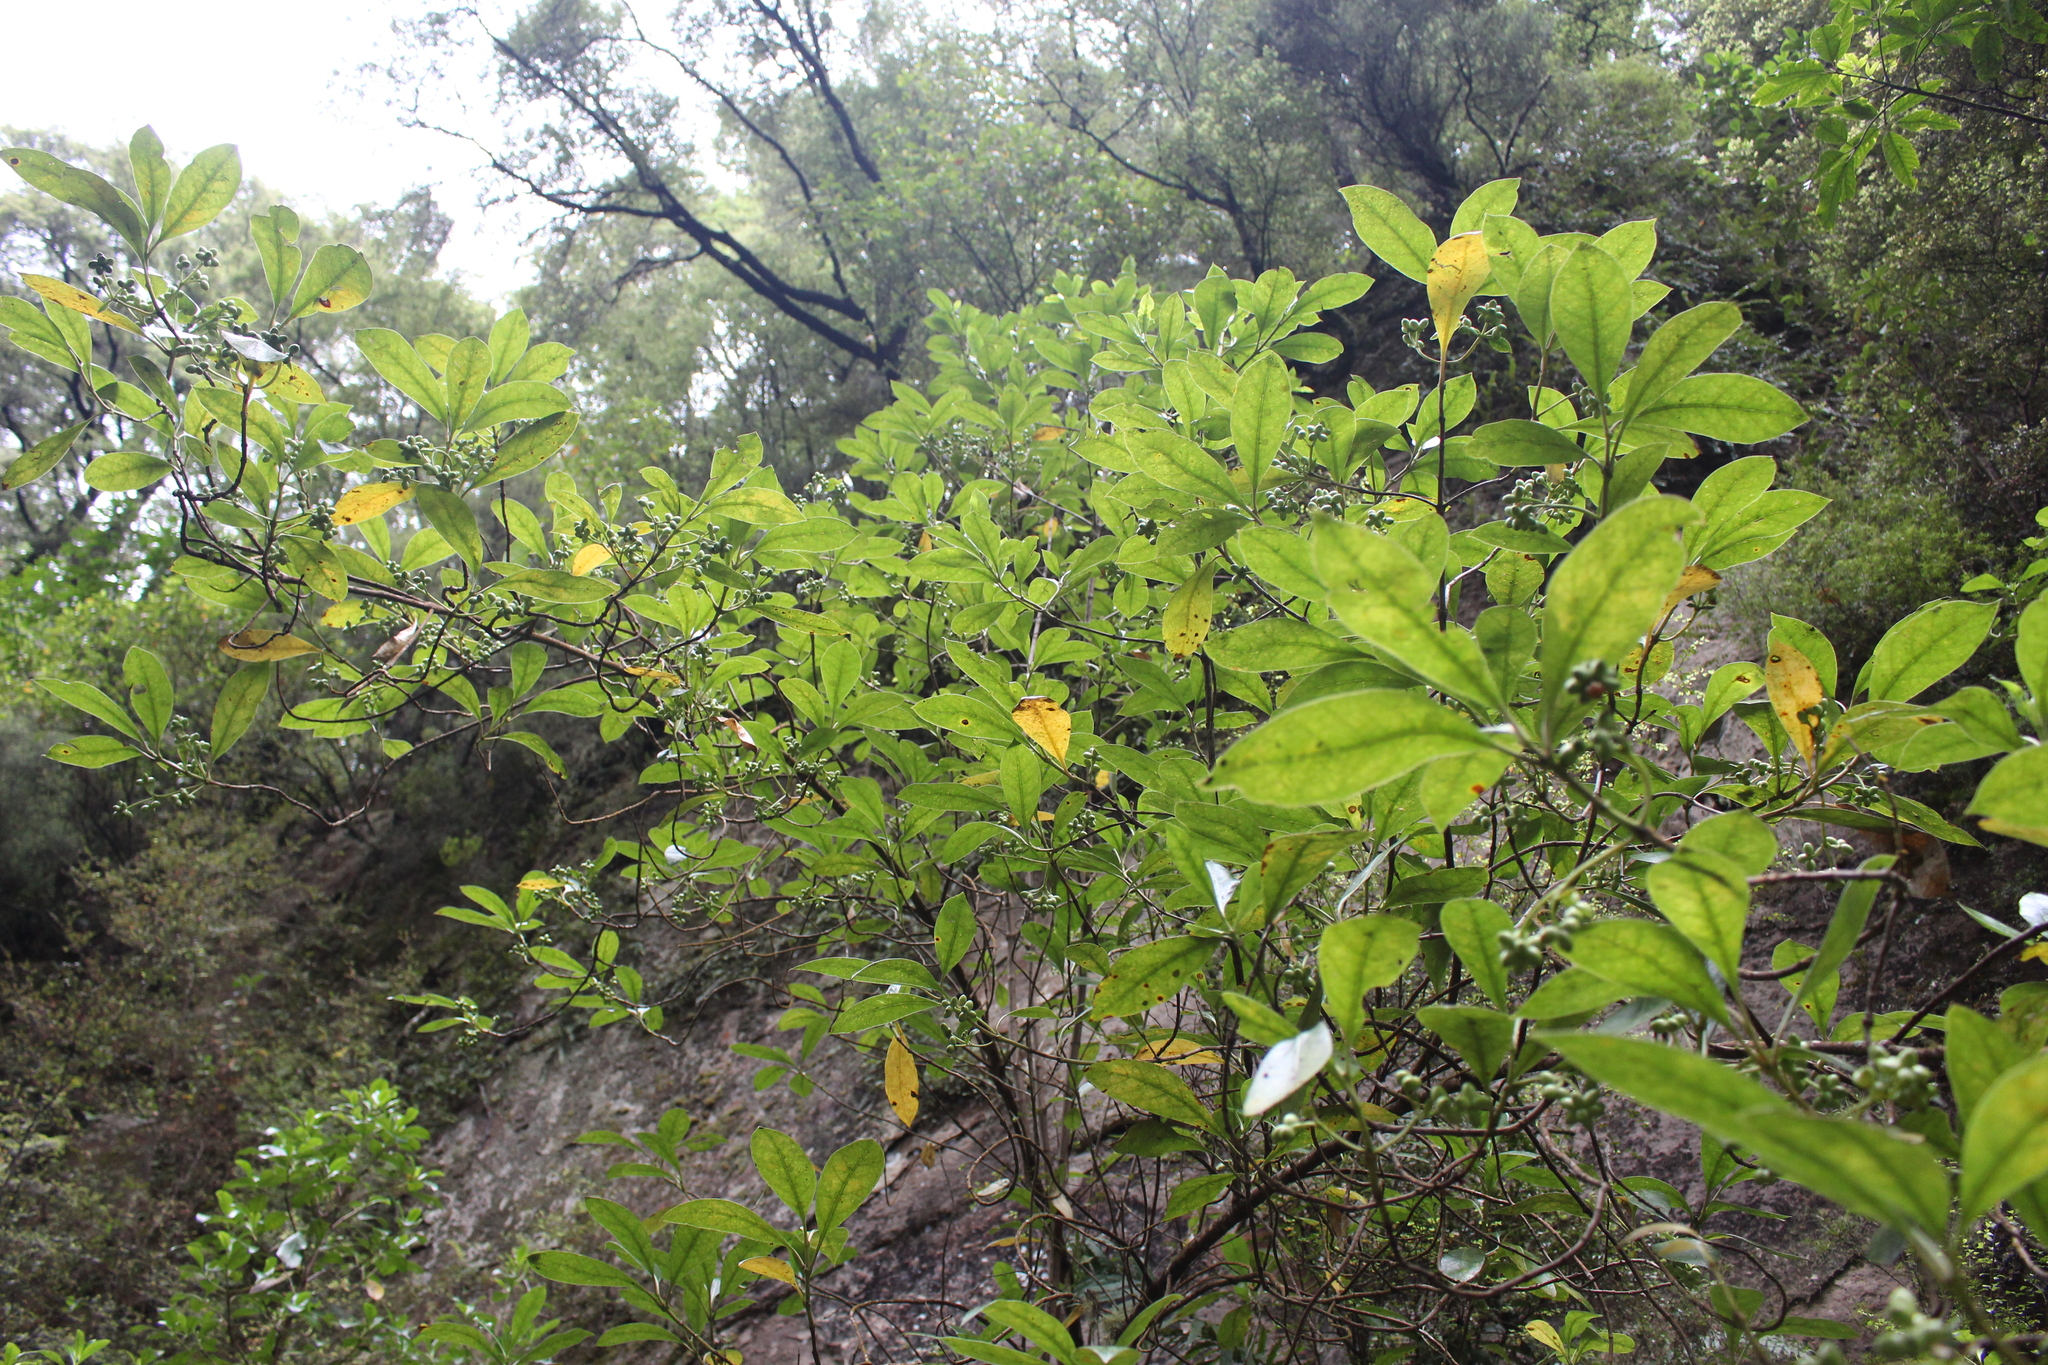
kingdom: Plantae
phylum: Tracheophyta
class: Magnoliopsida
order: Gentianales
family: Rubiaceae
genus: Coprosma
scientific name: Coprosma lucida
